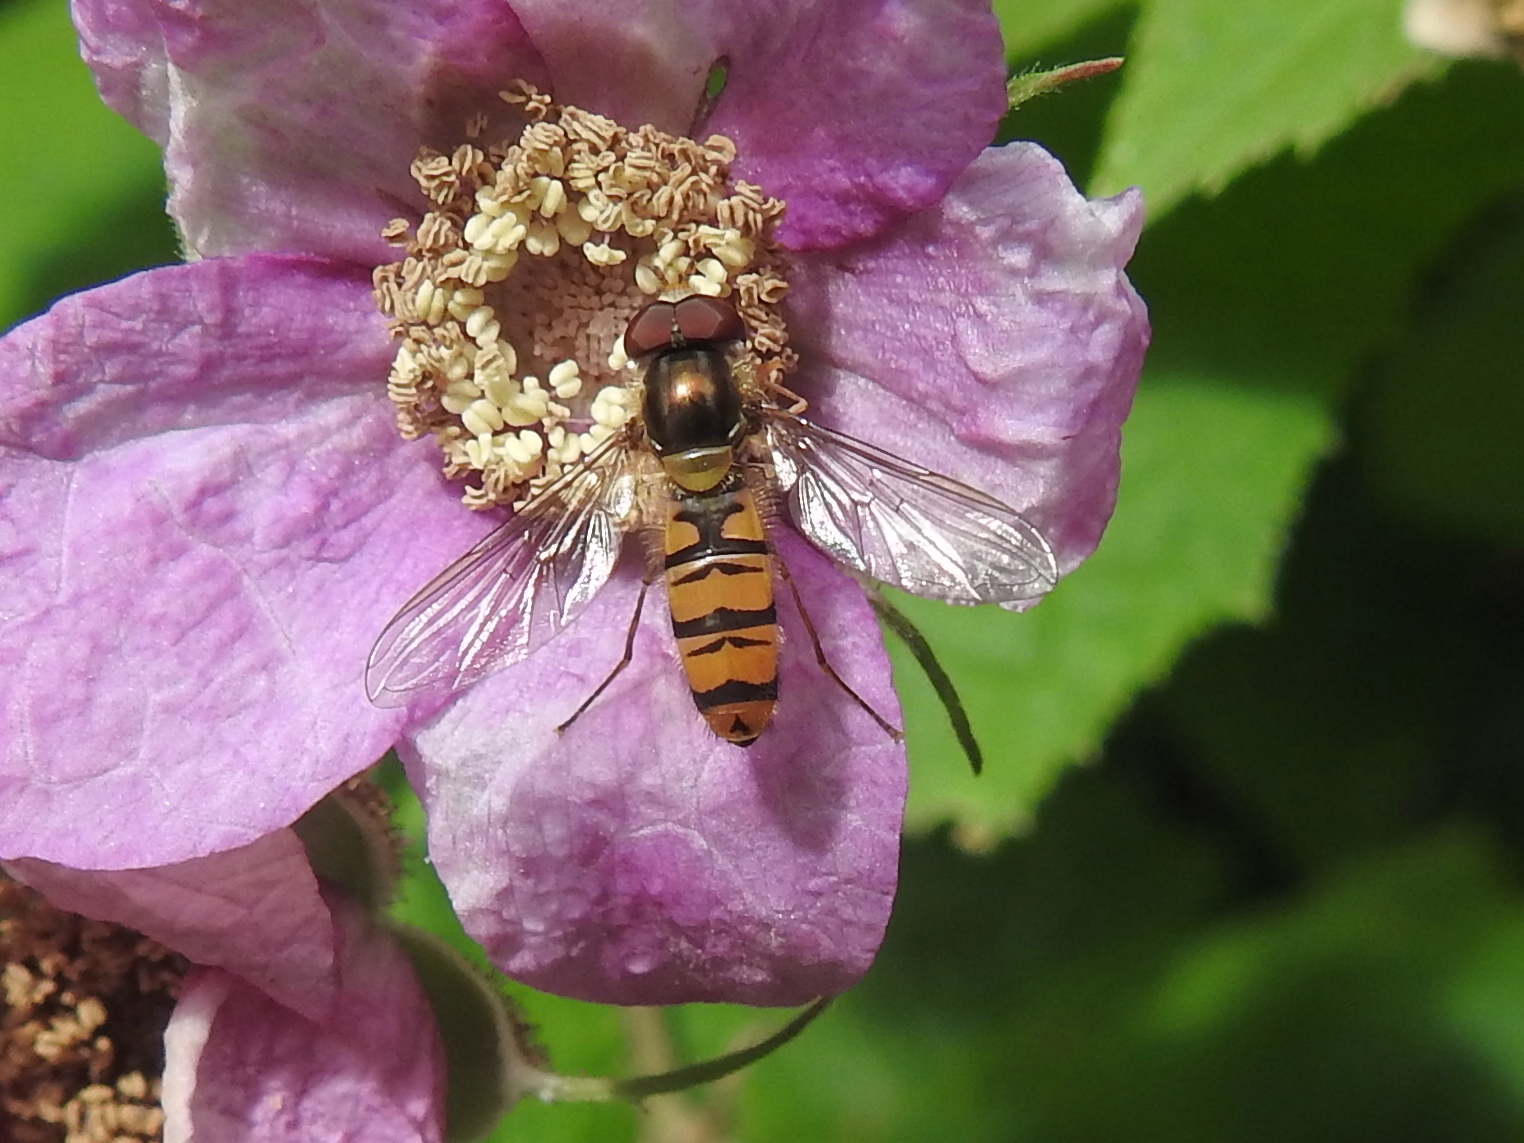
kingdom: Animalia
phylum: Arthropoda
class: Insecta
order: Diptera
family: Syrphidae
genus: Episyrphus
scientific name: Episyrphus balteatus
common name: Marmalade hoverfly
